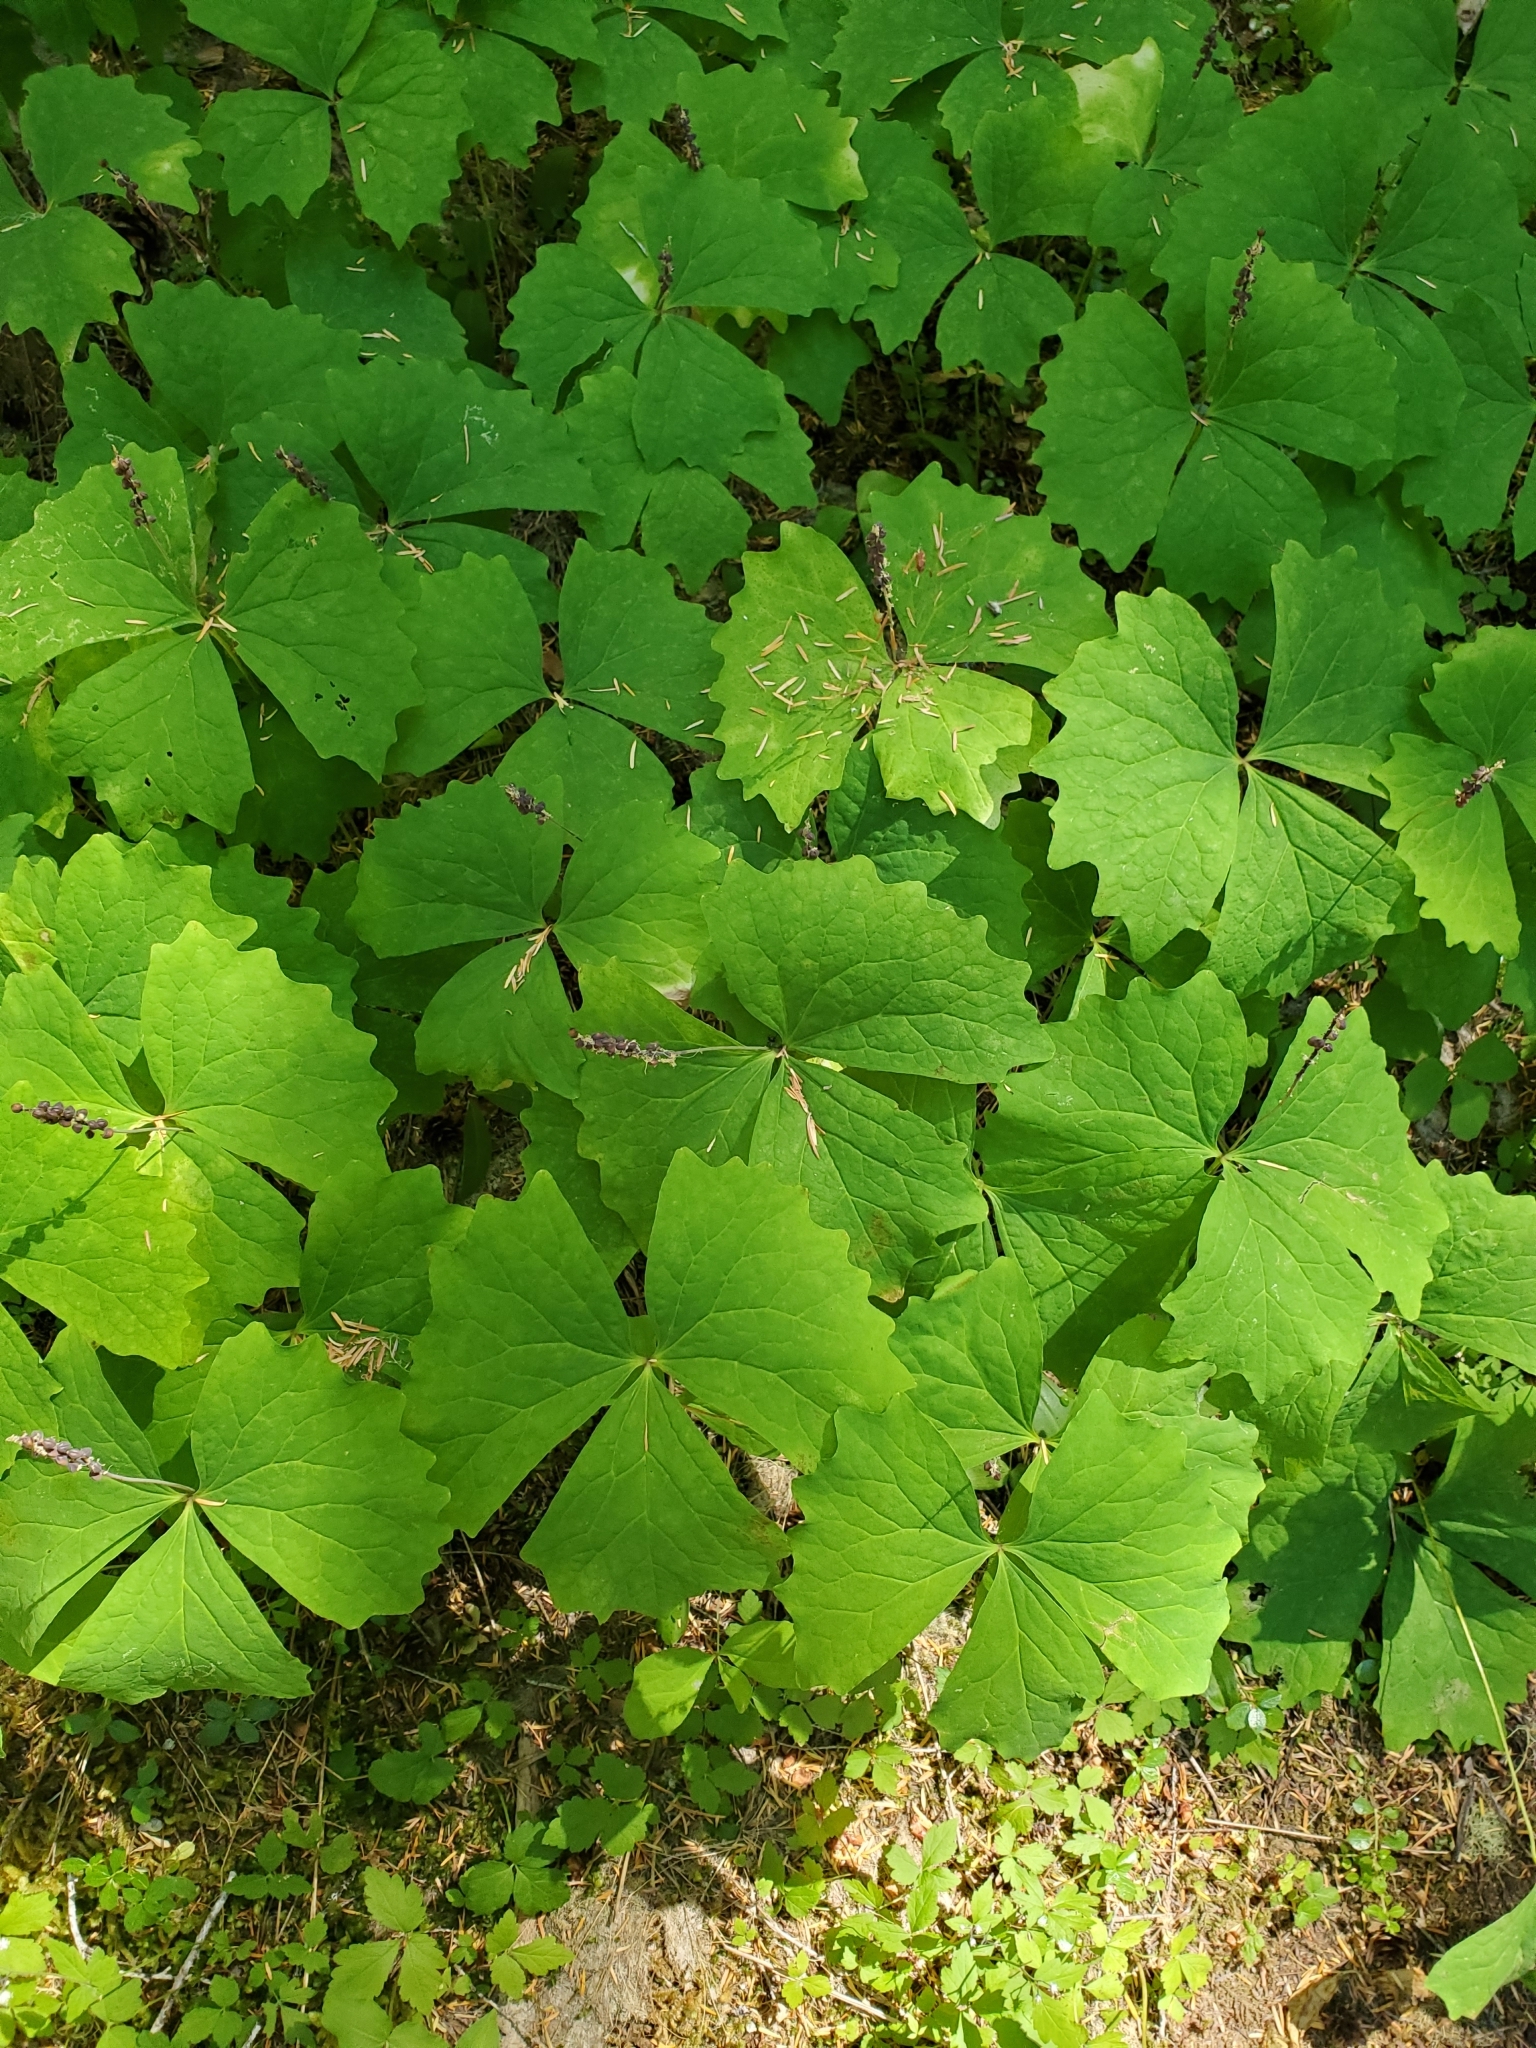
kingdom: Plantae
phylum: Tracheophyta
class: Magnoliopsida
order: Ranunculales
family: Berberidaceae
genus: Achlys
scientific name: Achlys triphylla
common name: Vanilla-leaf
